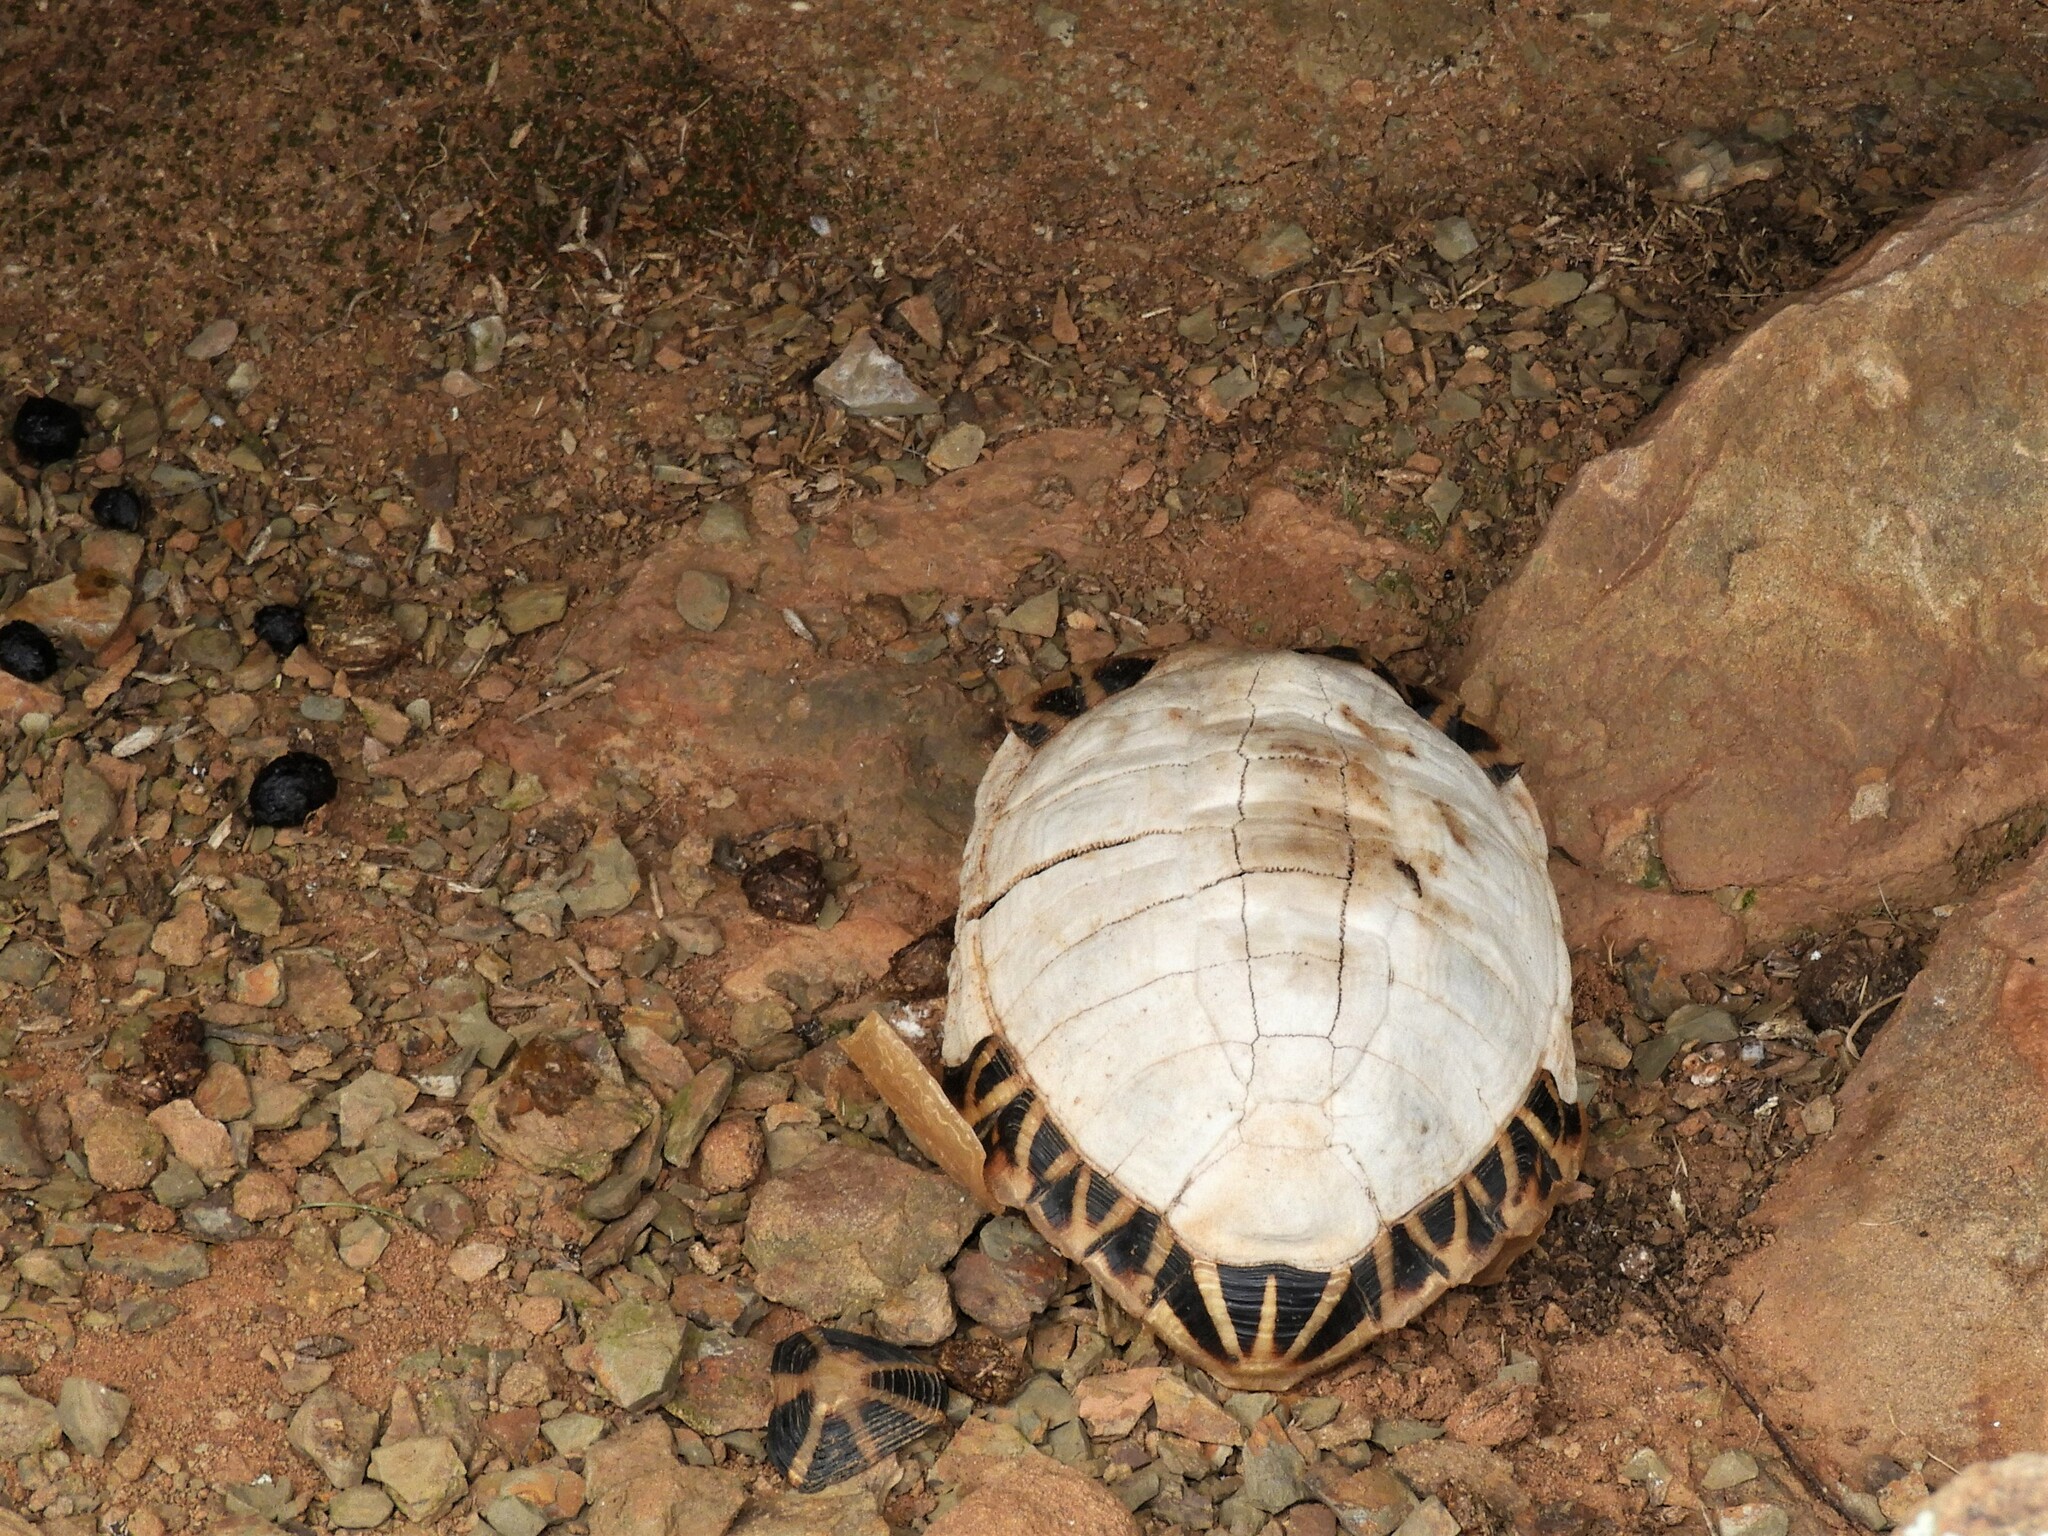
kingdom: Animalia
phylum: Chordata
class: Testudines
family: Testudinidae
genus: Psammobates
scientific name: Psammobates tentorius
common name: Tent tortoise
